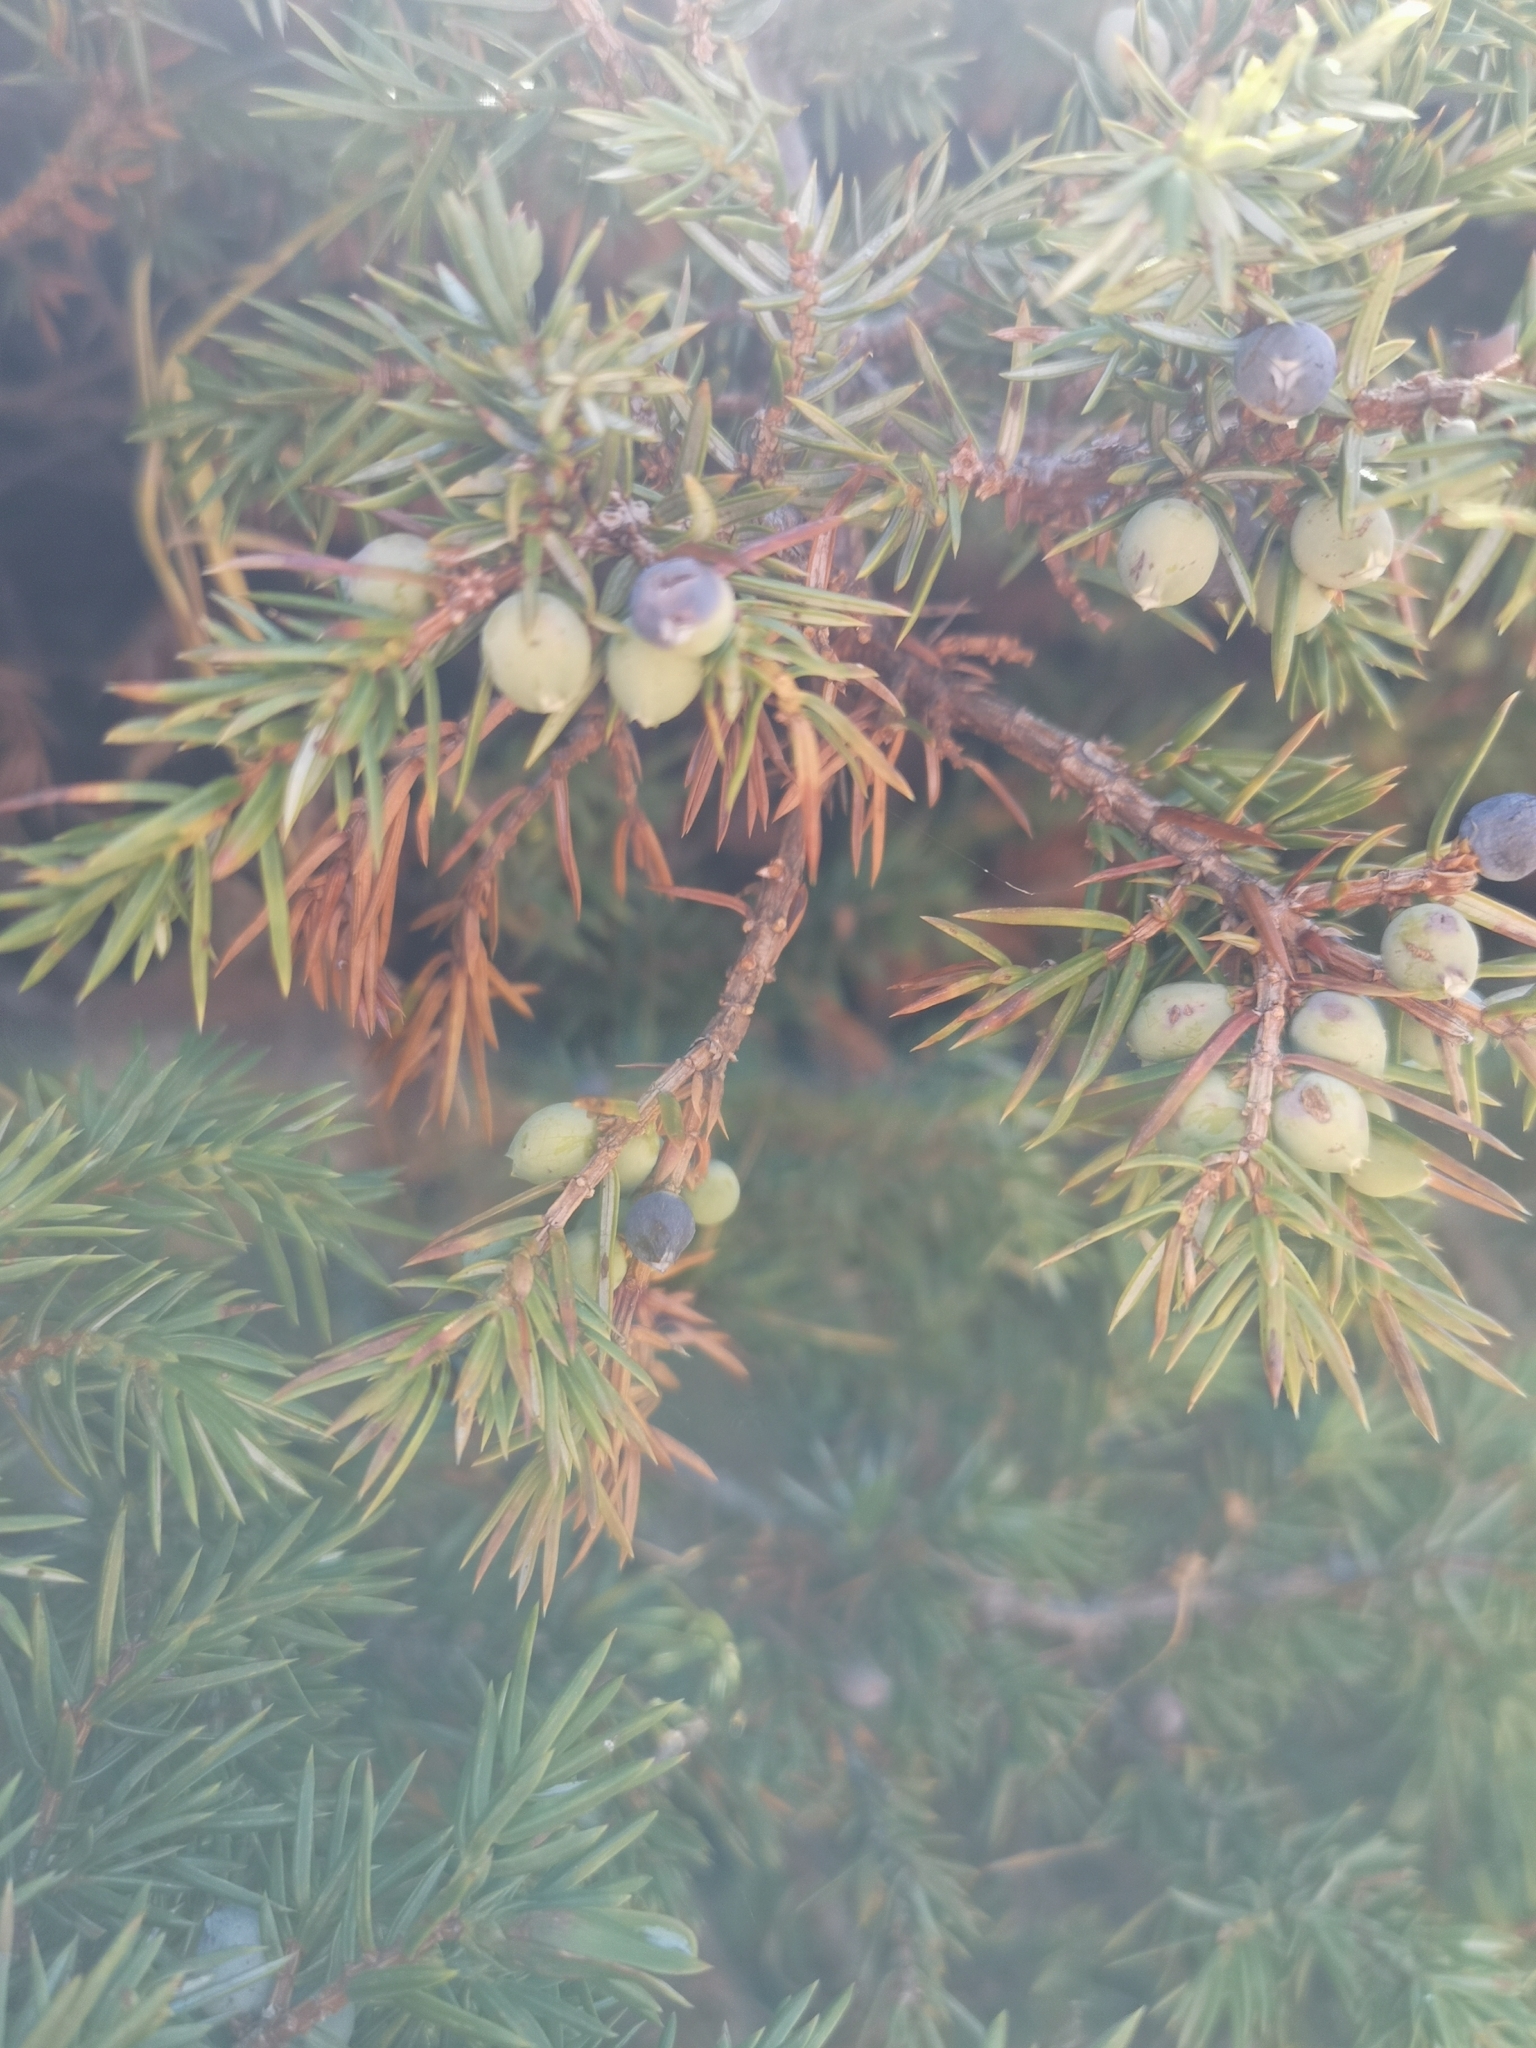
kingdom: Plantae
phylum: Tracheophyta
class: Pinopsida
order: Pinales
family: Cupressaceae
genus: Juniperus
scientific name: Juniperus communis
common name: Common juniper
